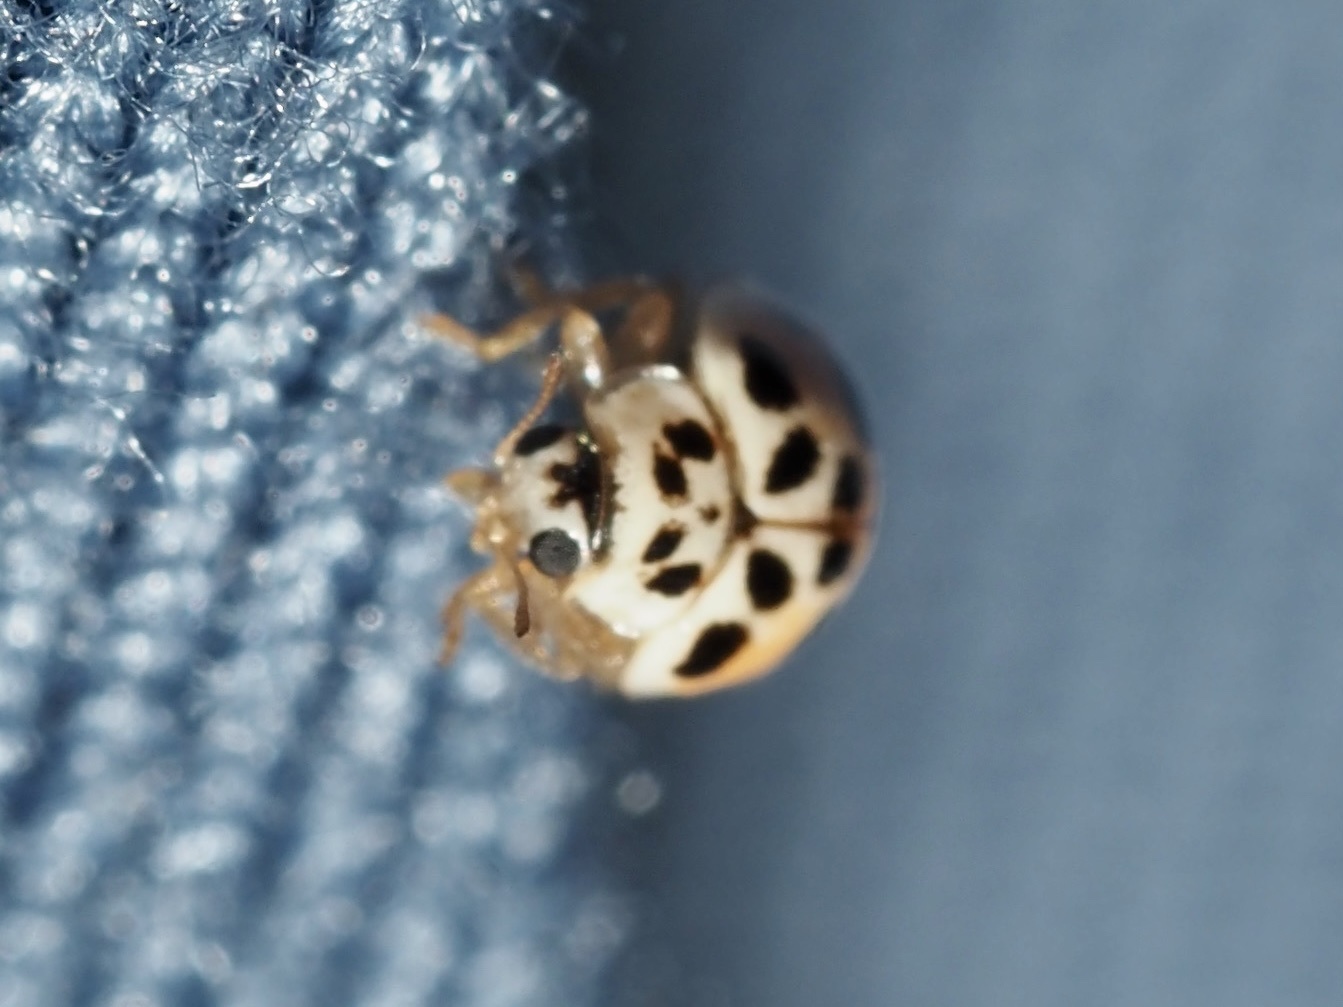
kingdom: Animalia
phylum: Arthropoda
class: Insecta
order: Coleoptera
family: Coccinellidae
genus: Psyllobora
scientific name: Psyllobora vigintimaculata
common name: Ladybird beetle
